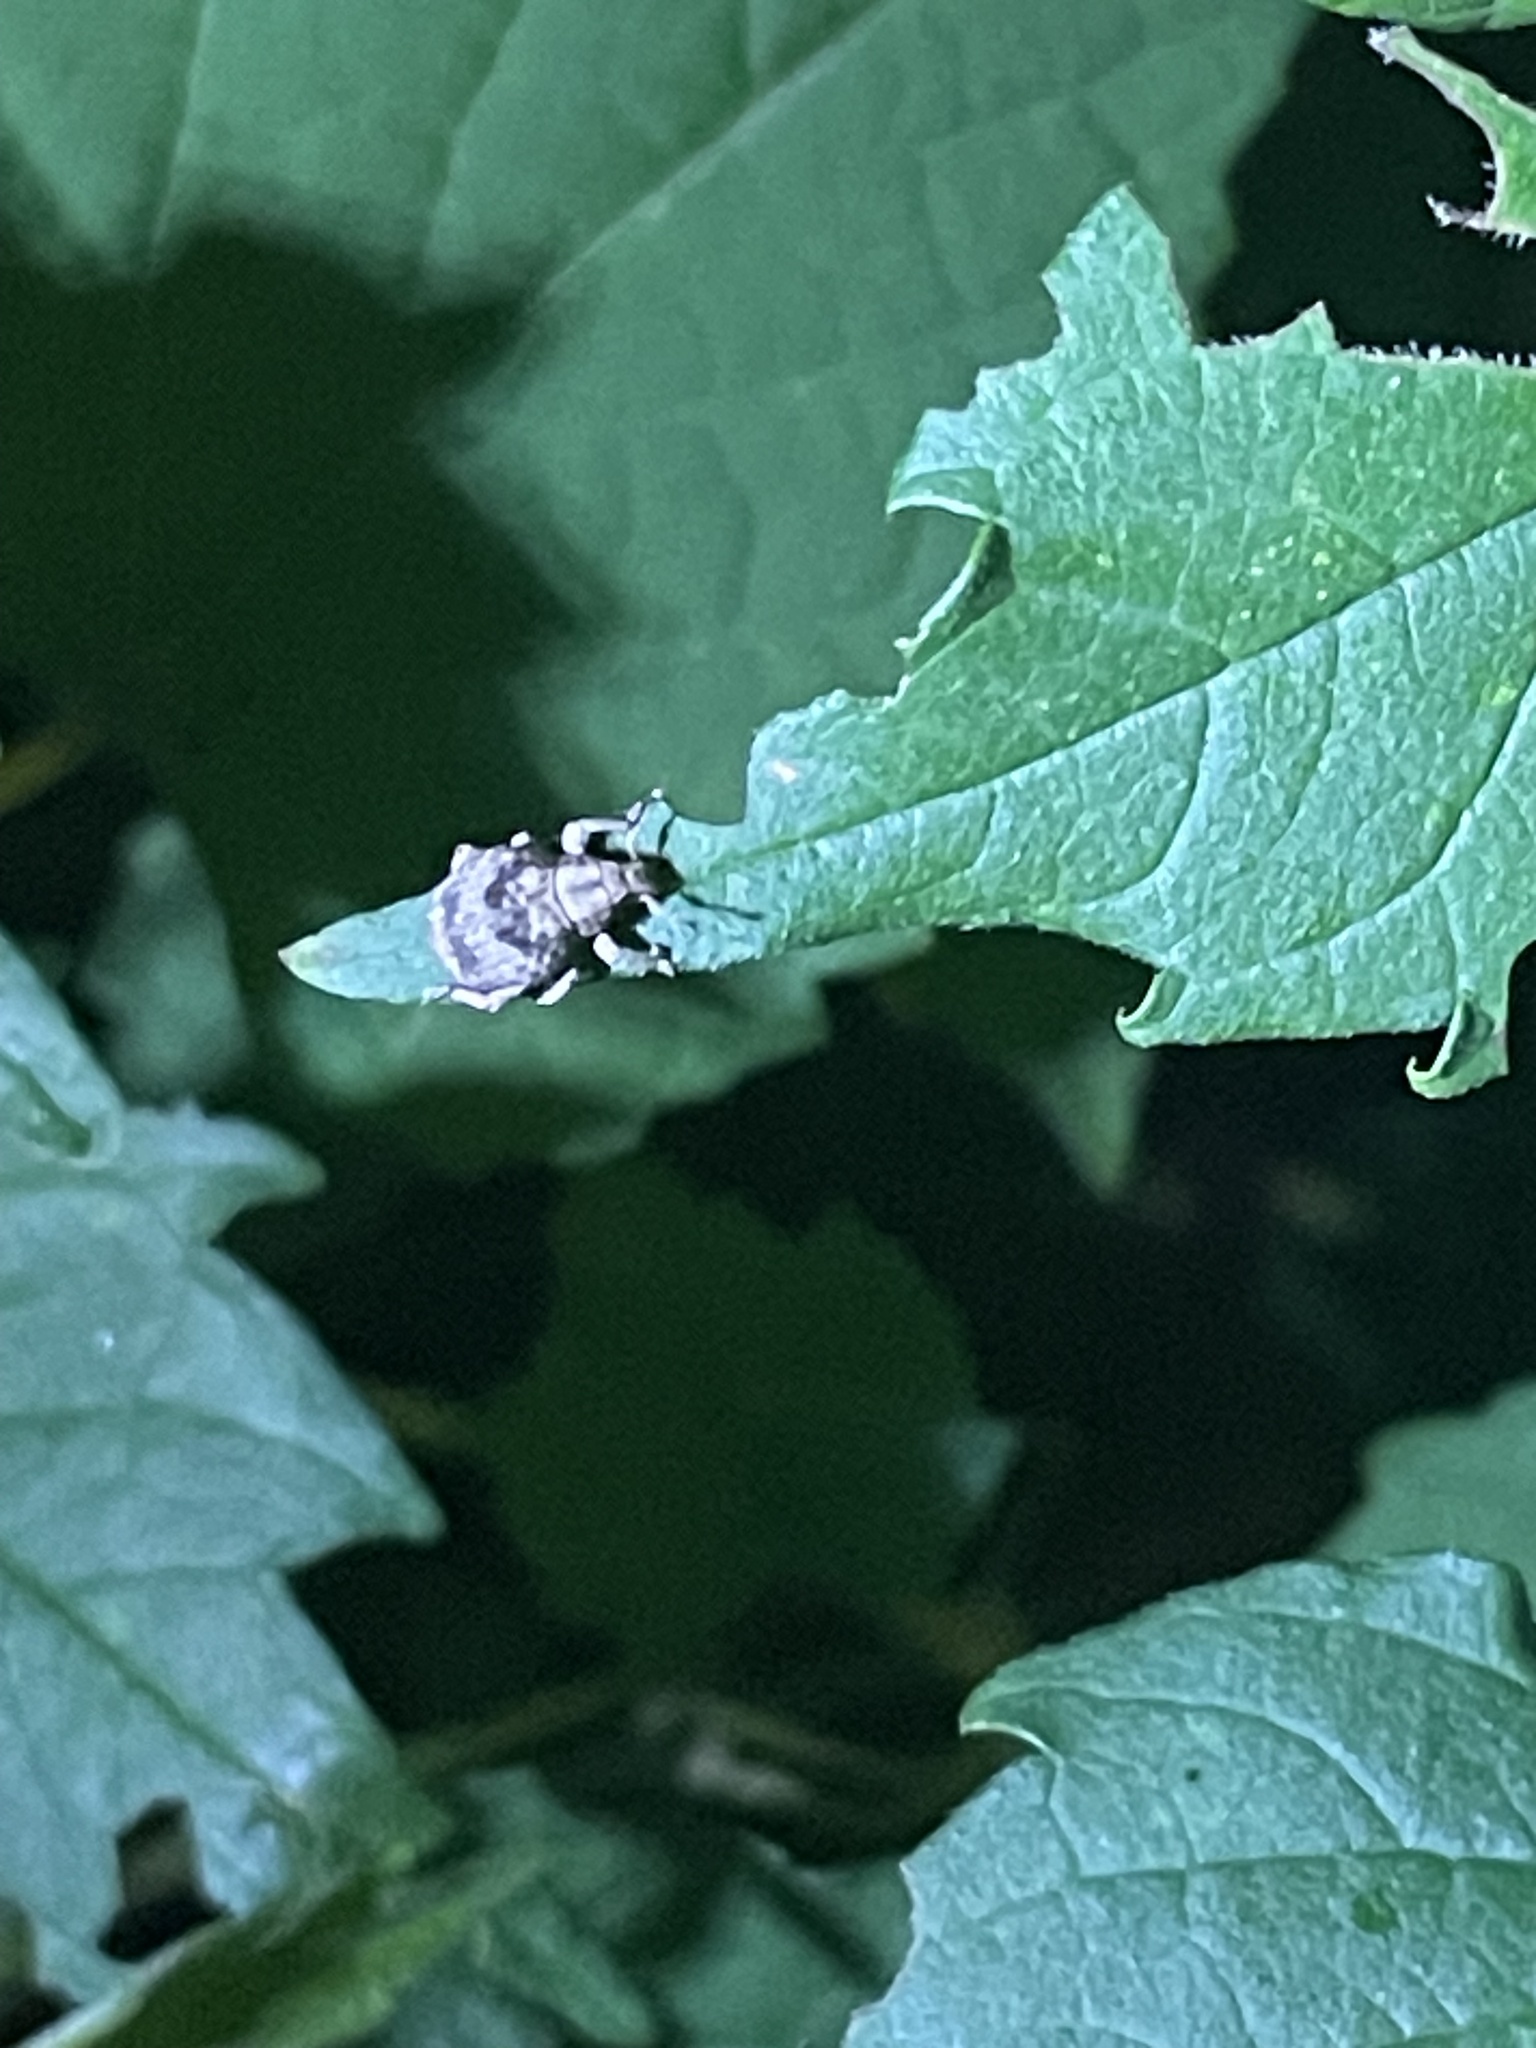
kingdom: Animalia
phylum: Arthropoda
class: Insecta
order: Coleoptera
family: Curculionidae
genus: Pseudocneorhinus
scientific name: Pseudocneorhinus bifasciatus
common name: Two-banded japanese weevil
